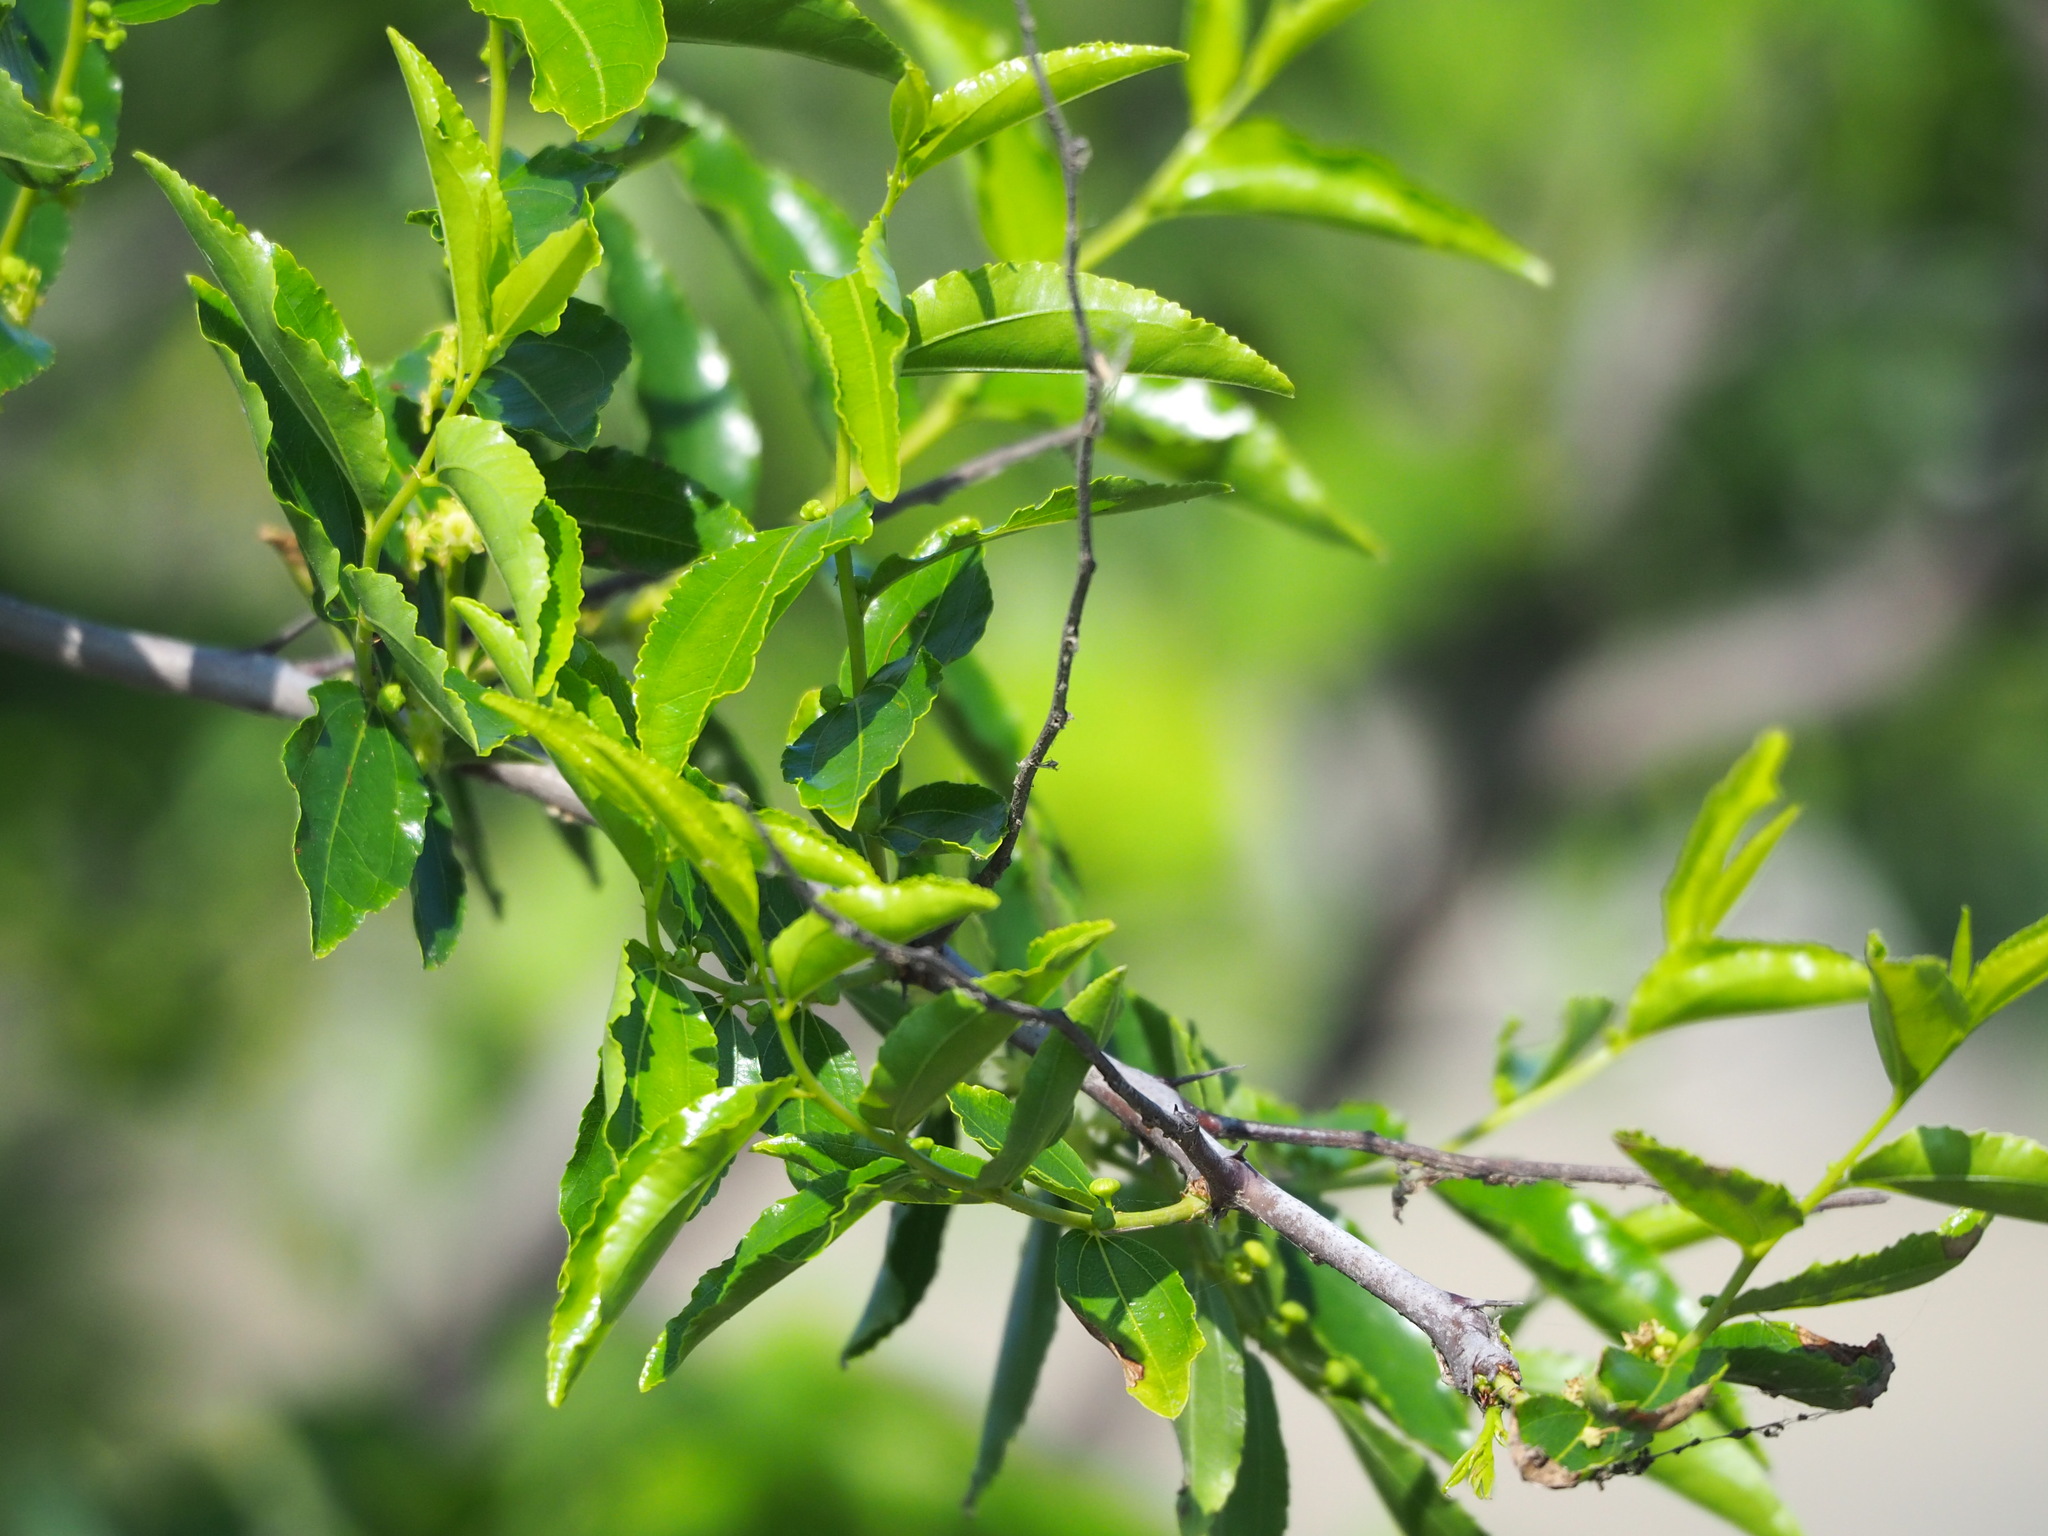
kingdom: Plantae
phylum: Tracheophyta
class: Magnoliopsida
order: Rosales
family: Rhamnaceae
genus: Ziziphus
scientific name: Ziziphus jujuba
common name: Jujube red date
